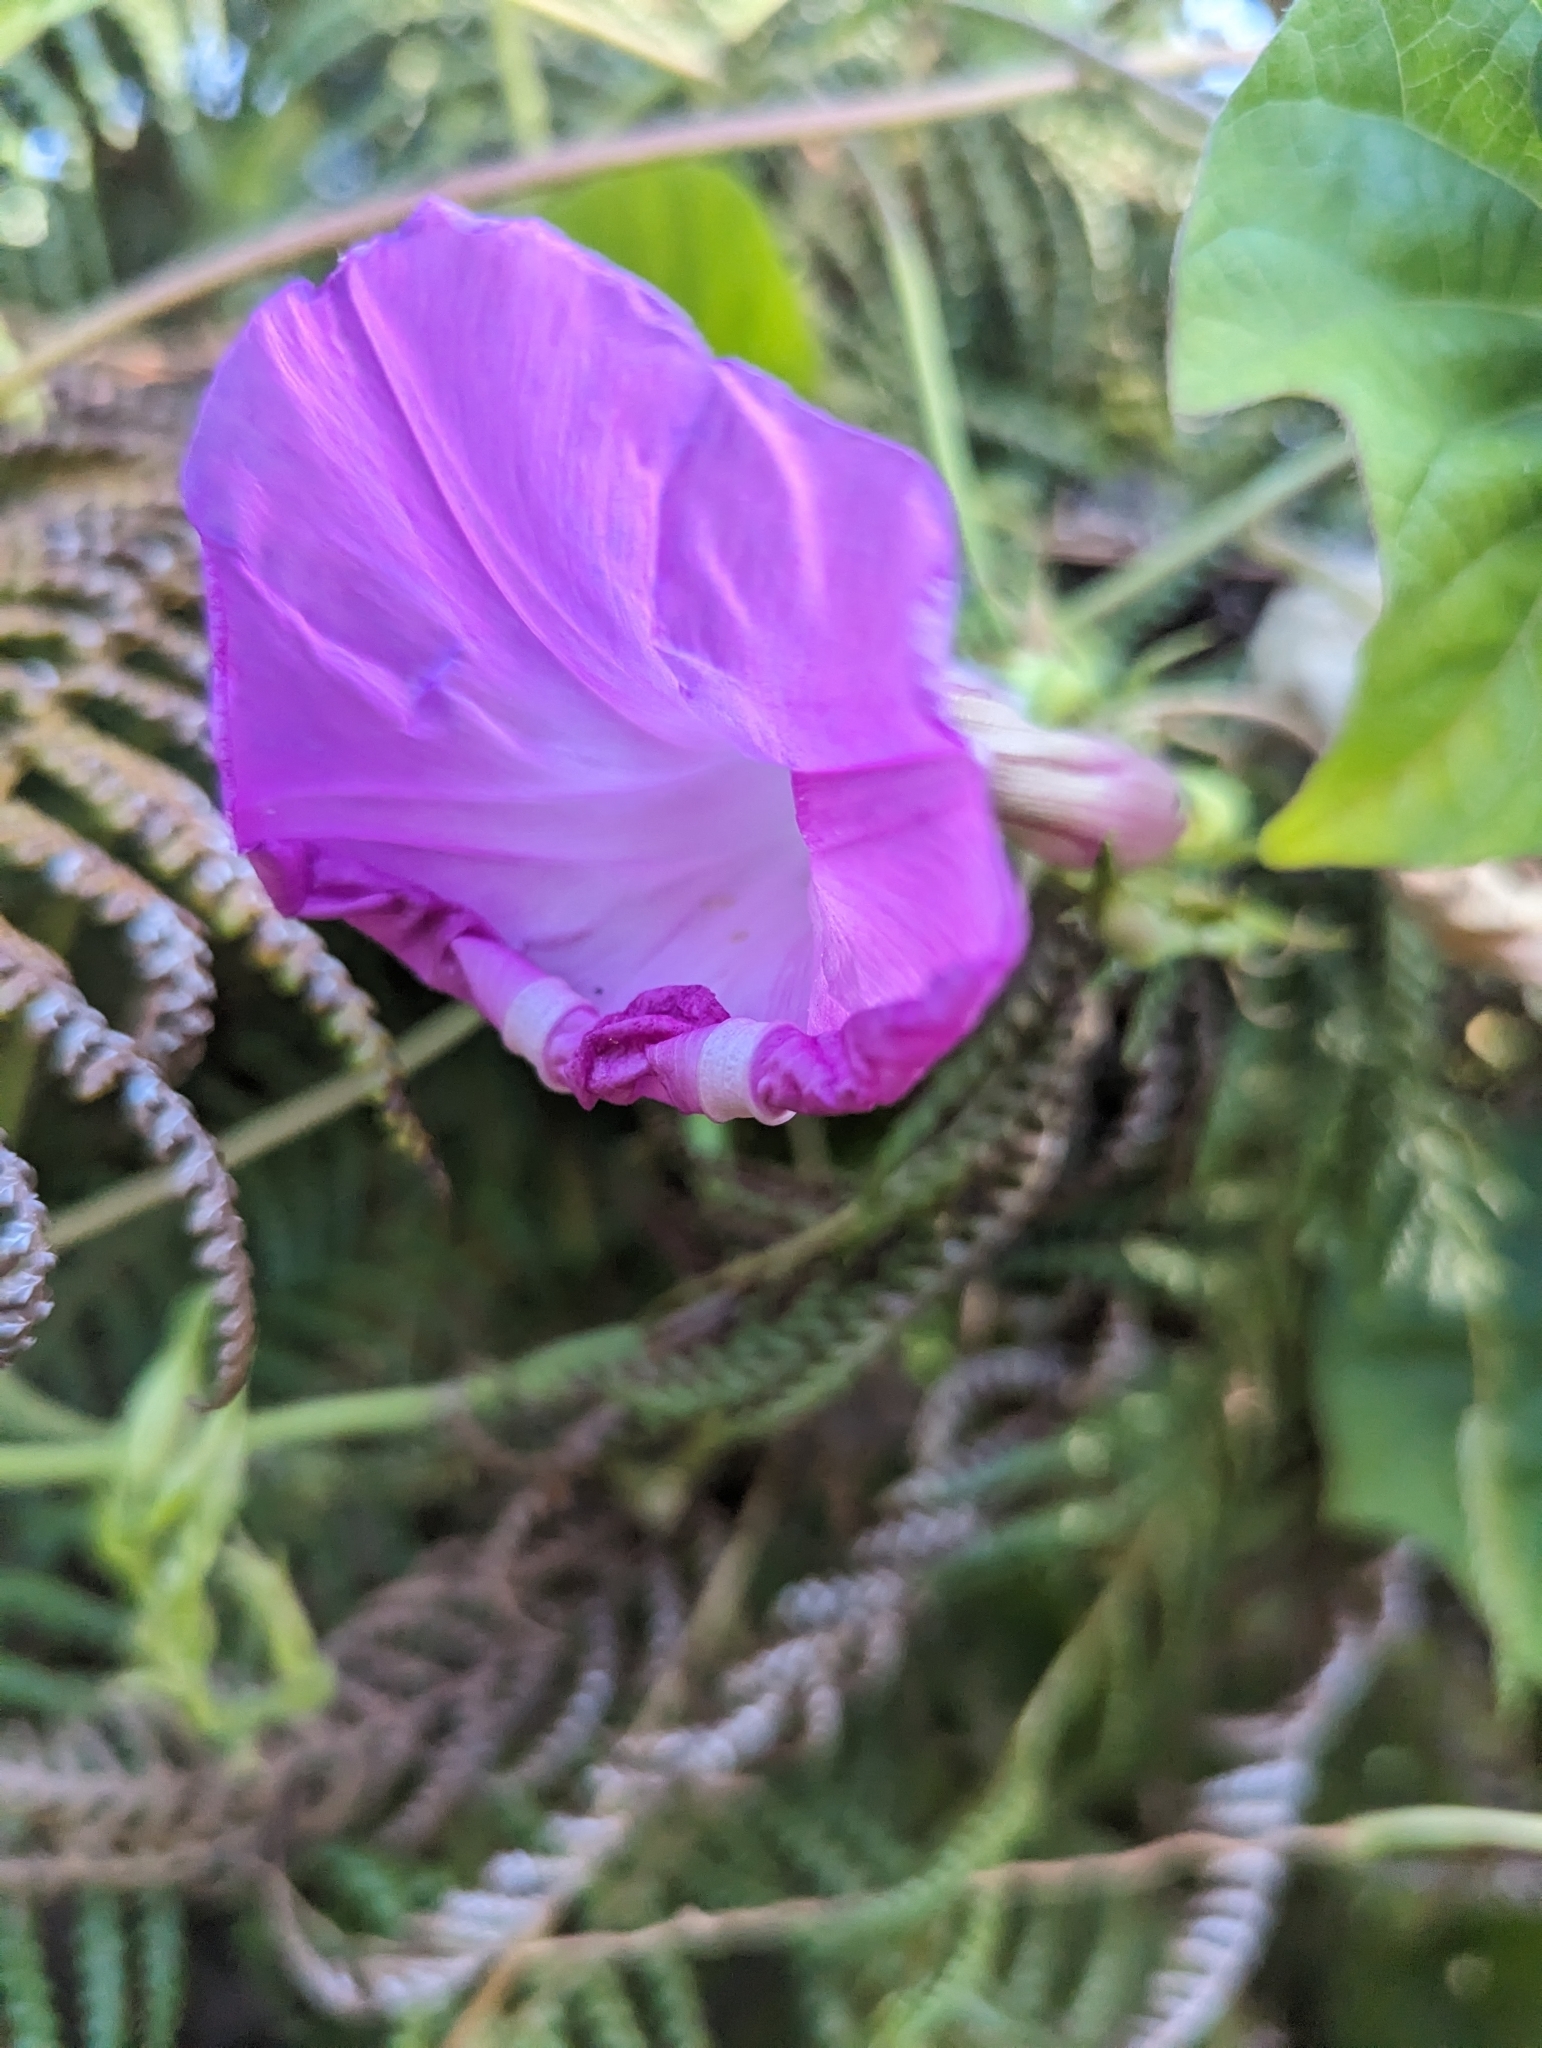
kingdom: Plantae
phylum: Tracheophyta
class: Magnoliopsida
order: Solanales
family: Convolvulaceae
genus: Ipomoea
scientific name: Ipomoea indica
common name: Blue dawnflower
